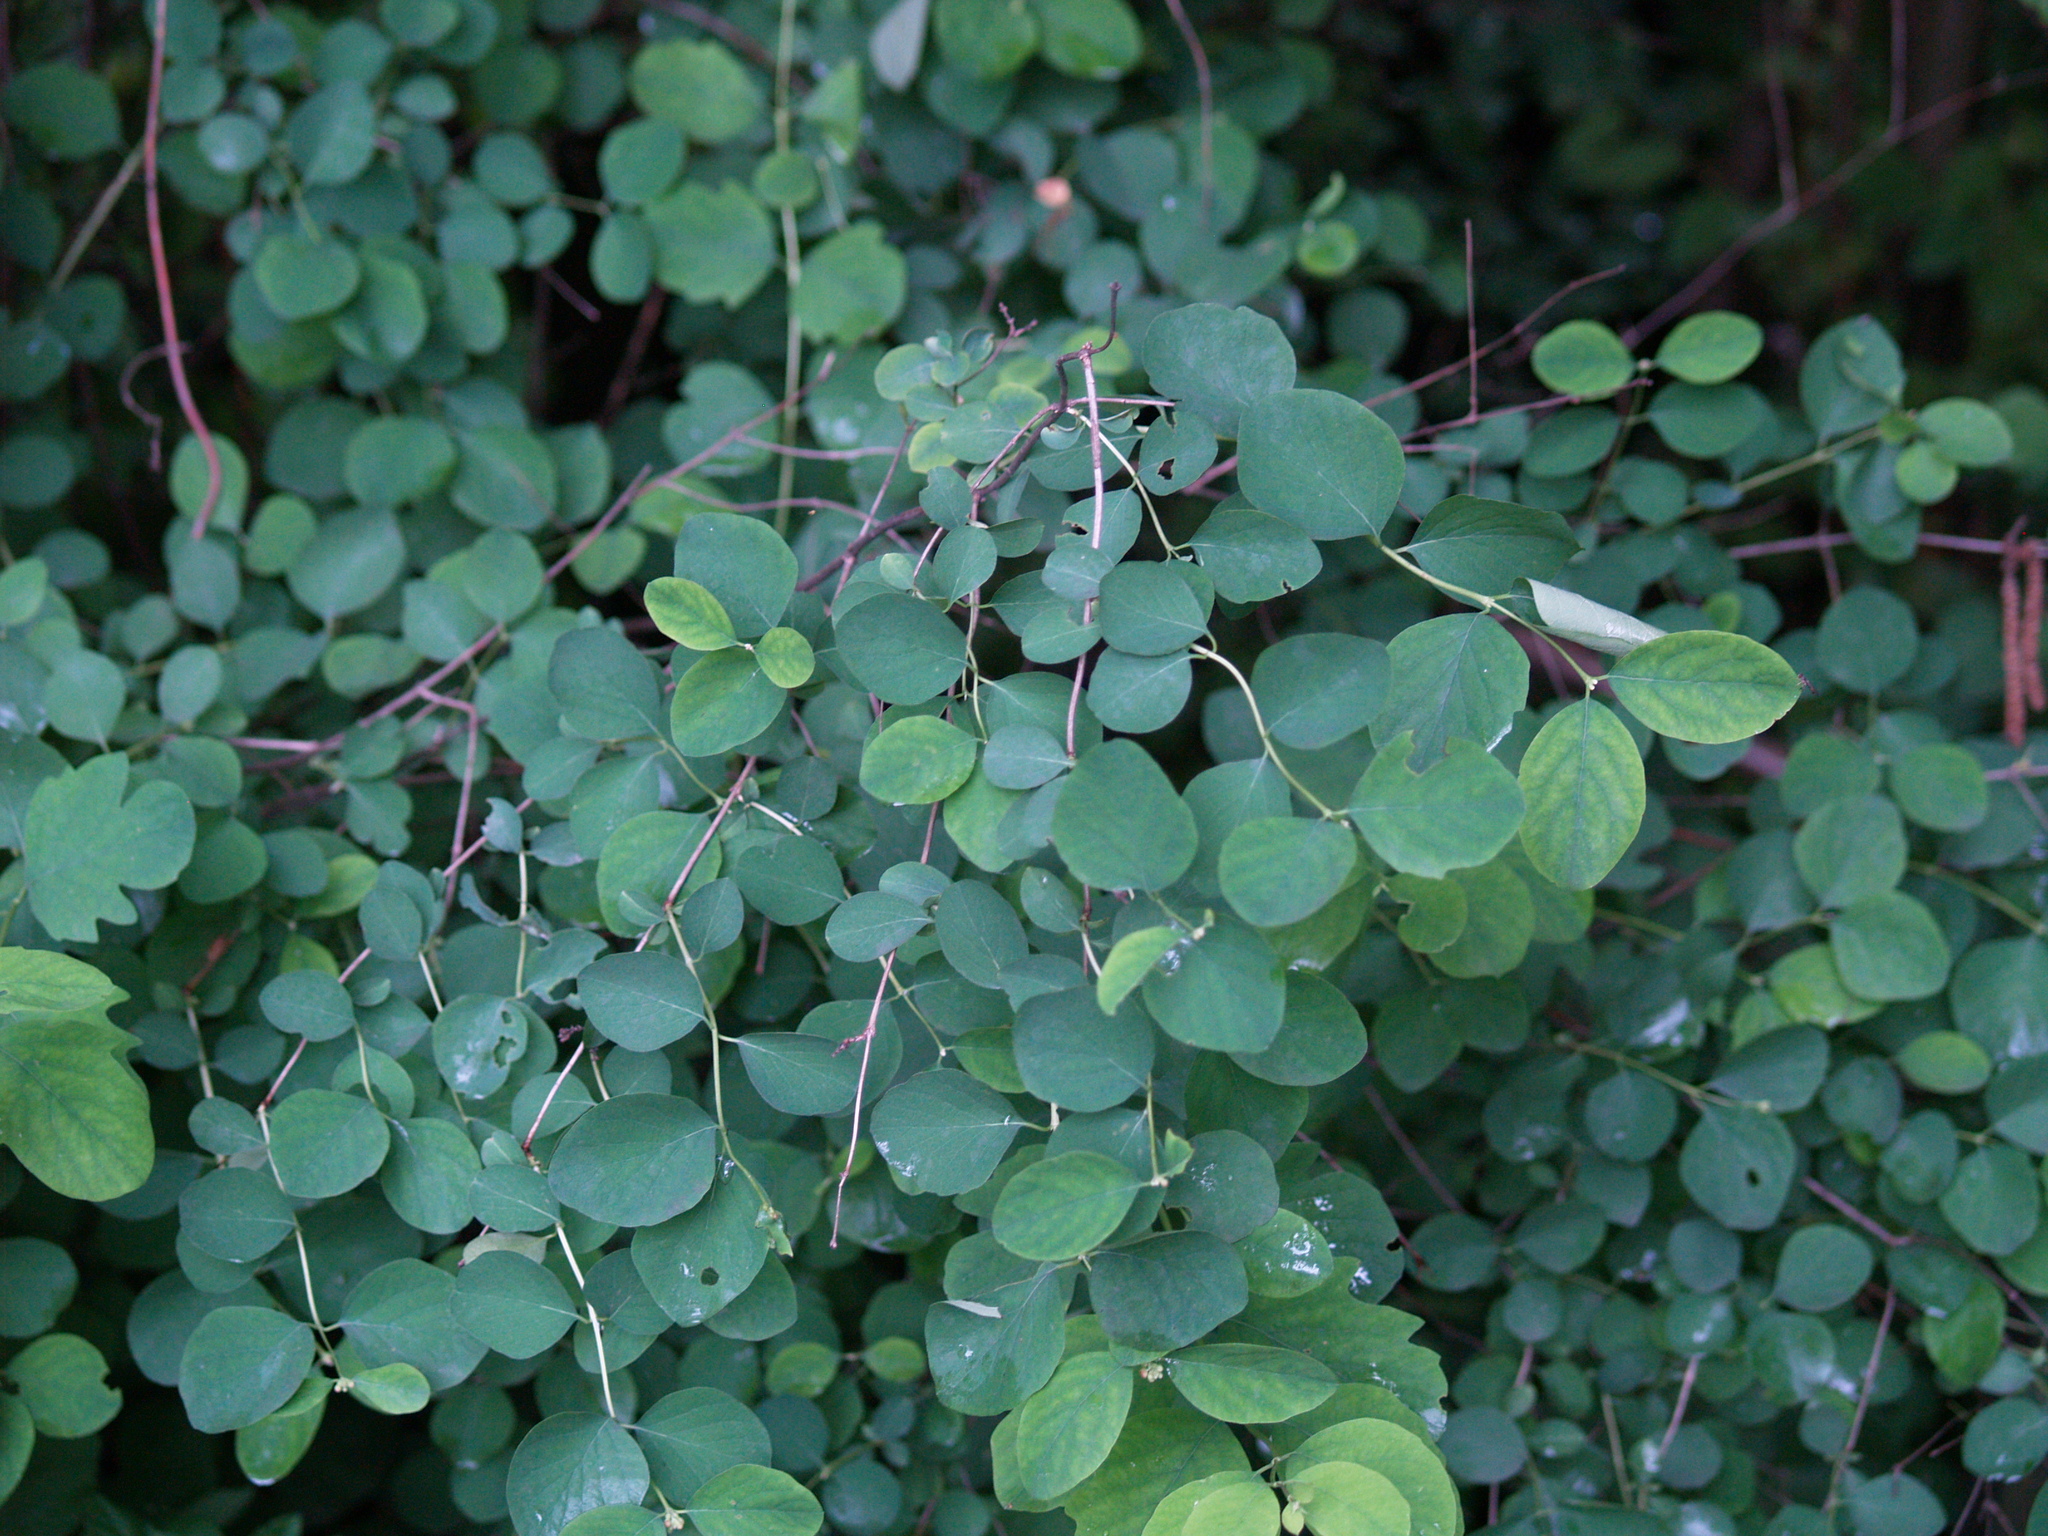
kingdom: Plantae
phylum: Tracheophyta
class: Magnoliopsida
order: Dipsacales
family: Caprifoliaceae
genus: Symphoricarpos
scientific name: Symphoricarpos albus
